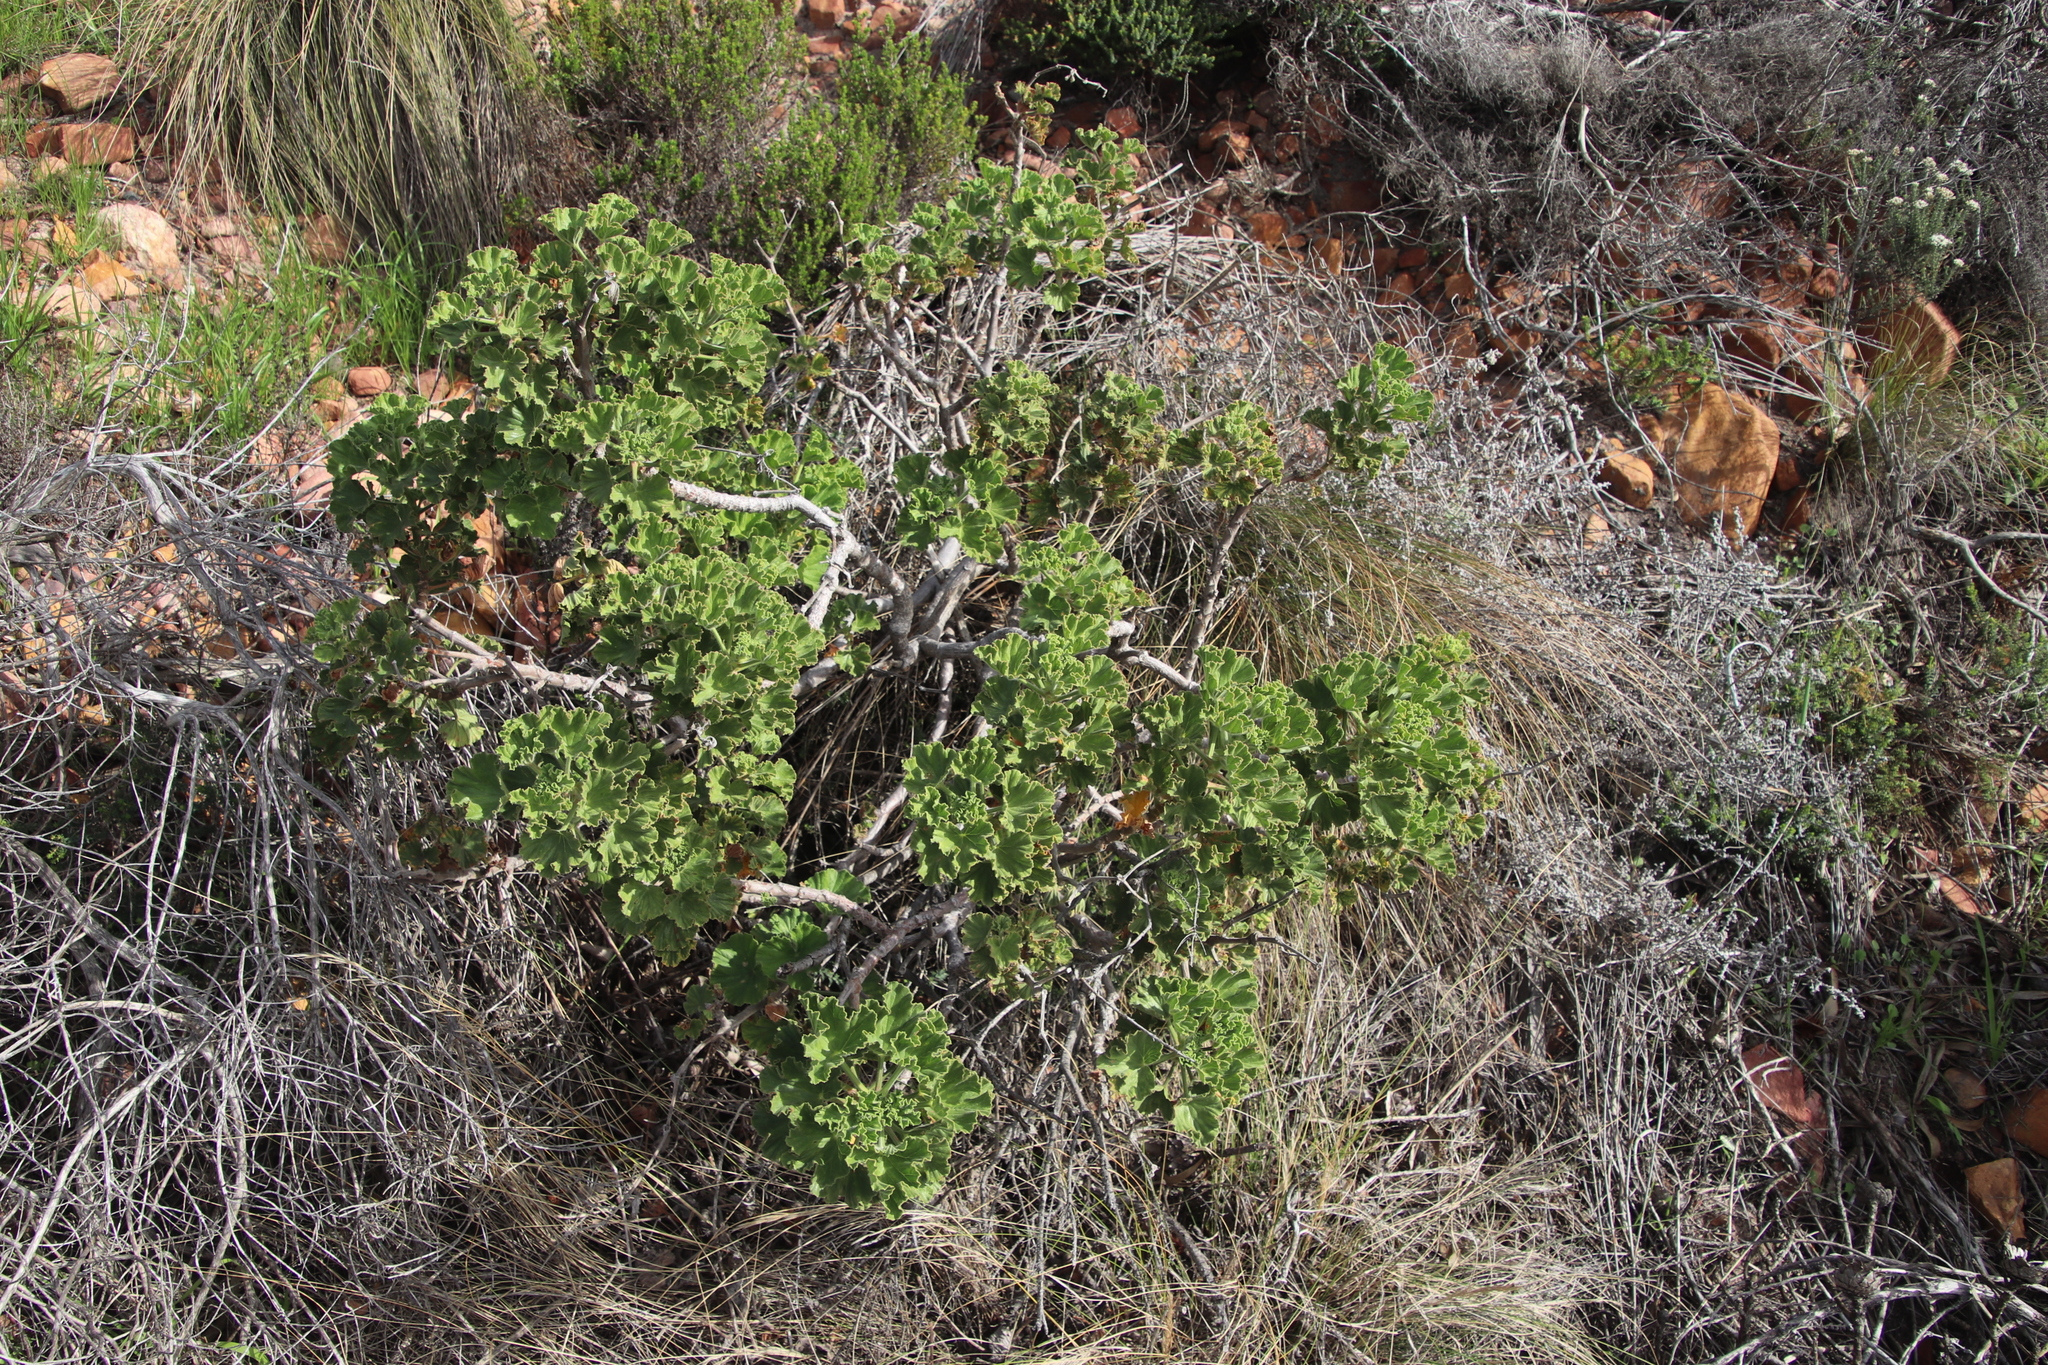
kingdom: Plantae
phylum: Tracheophyta
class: Magnoliopsida
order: Geraniales
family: Geraniaceae
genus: Pelargonium
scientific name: Pelargonium cucullatum
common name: Tree pelargonium
